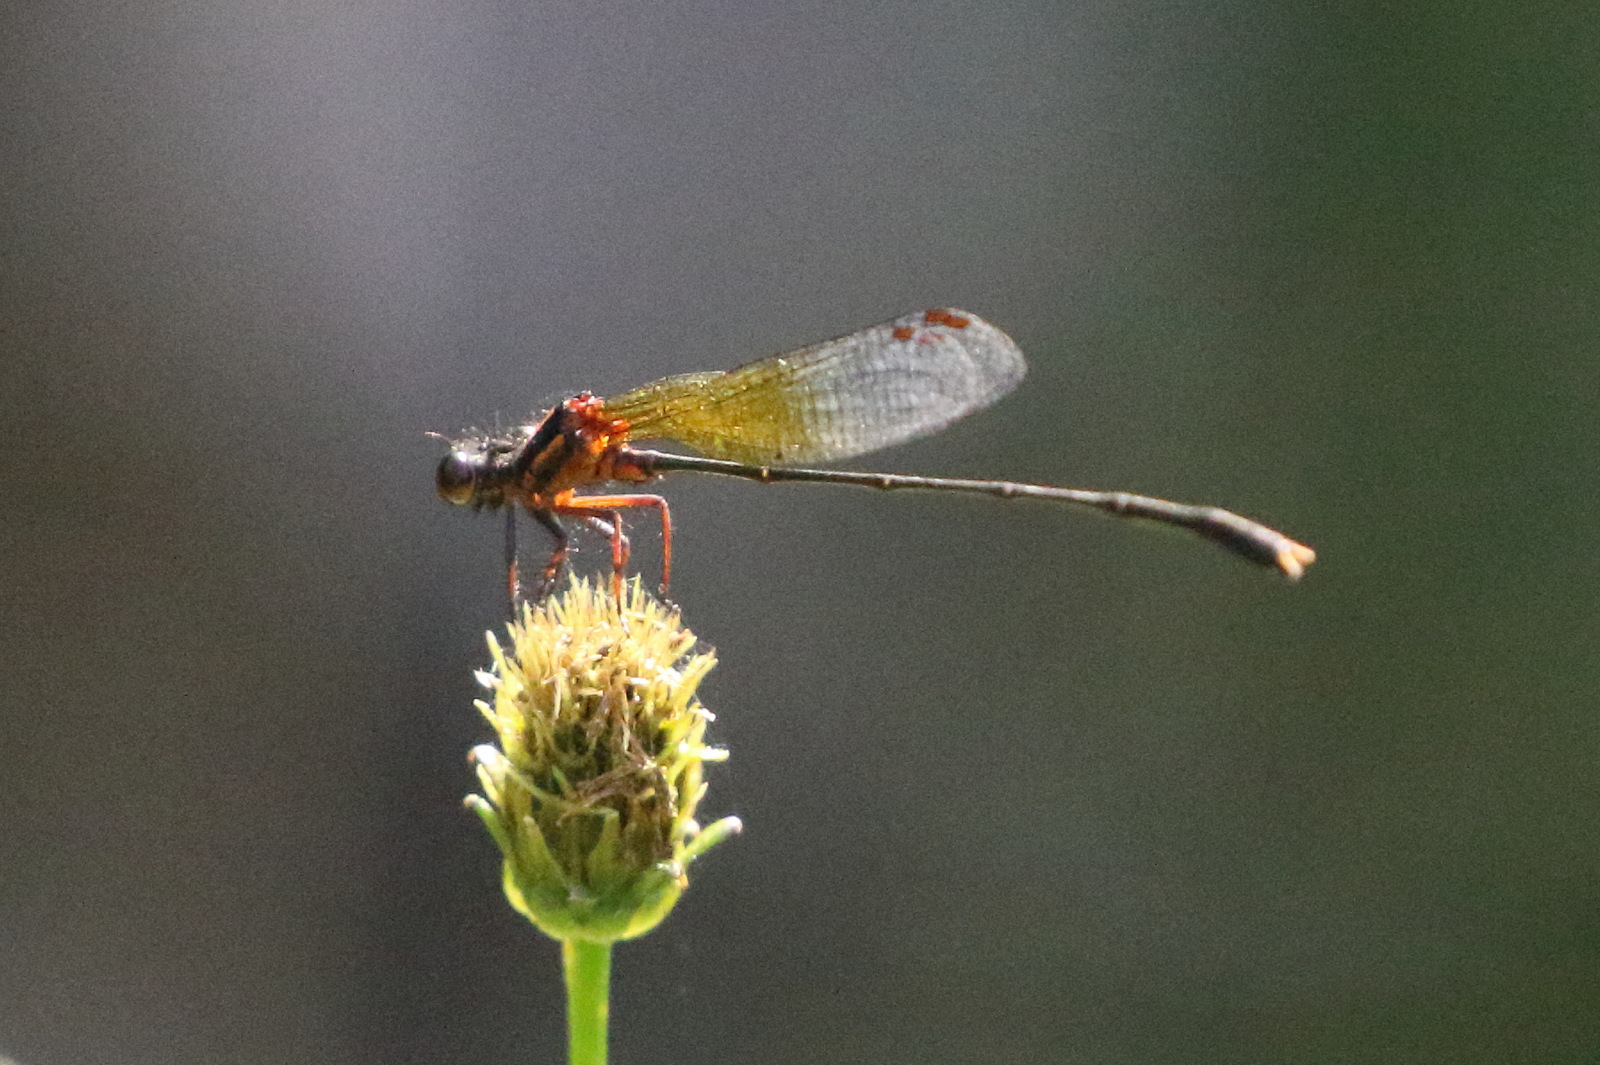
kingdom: Animalia
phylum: Arthropoda
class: Insecta
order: Odonata
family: Platycnemididae
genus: Nososticta
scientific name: Nososticta solida
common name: Orange threadtail
